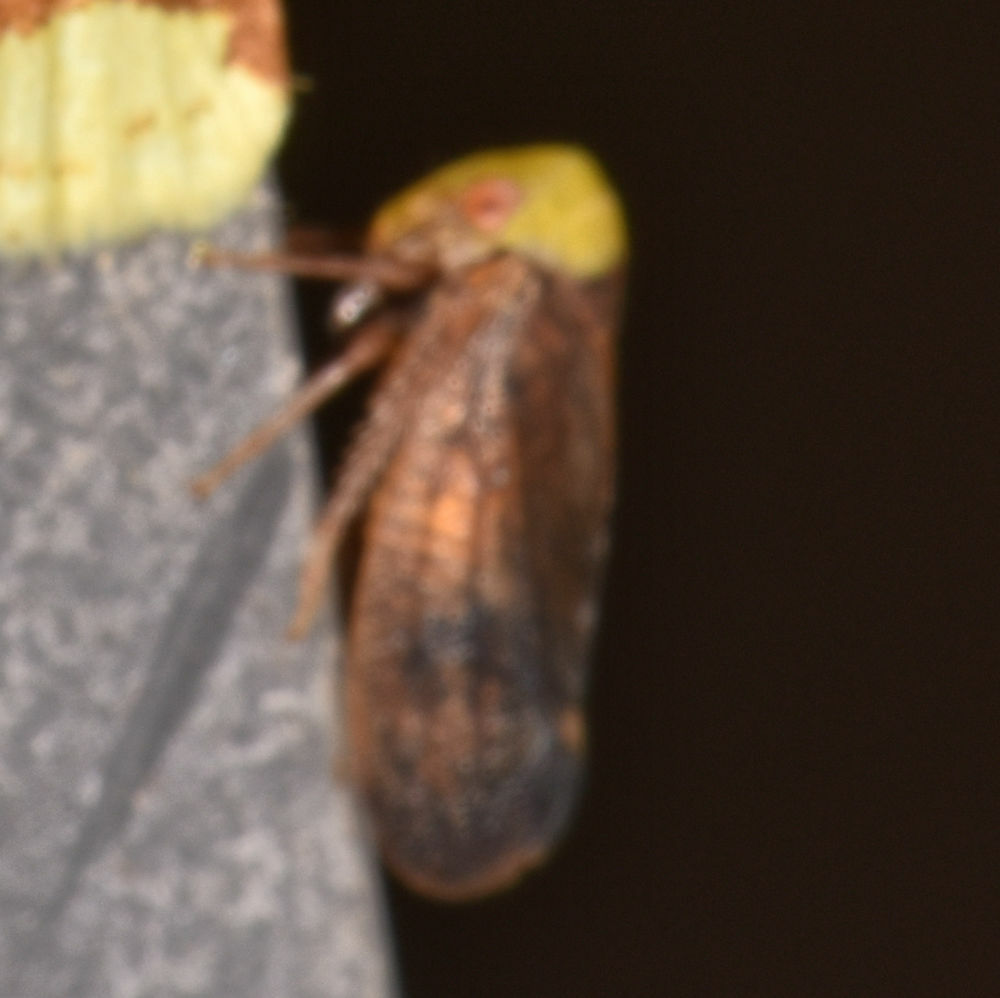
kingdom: Animalia
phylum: Arthropoda
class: Insecta
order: Hemiptera
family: Cicadellidae
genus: Jikradia
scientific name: Jikradia olitoria
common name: Coppery leafhopper
